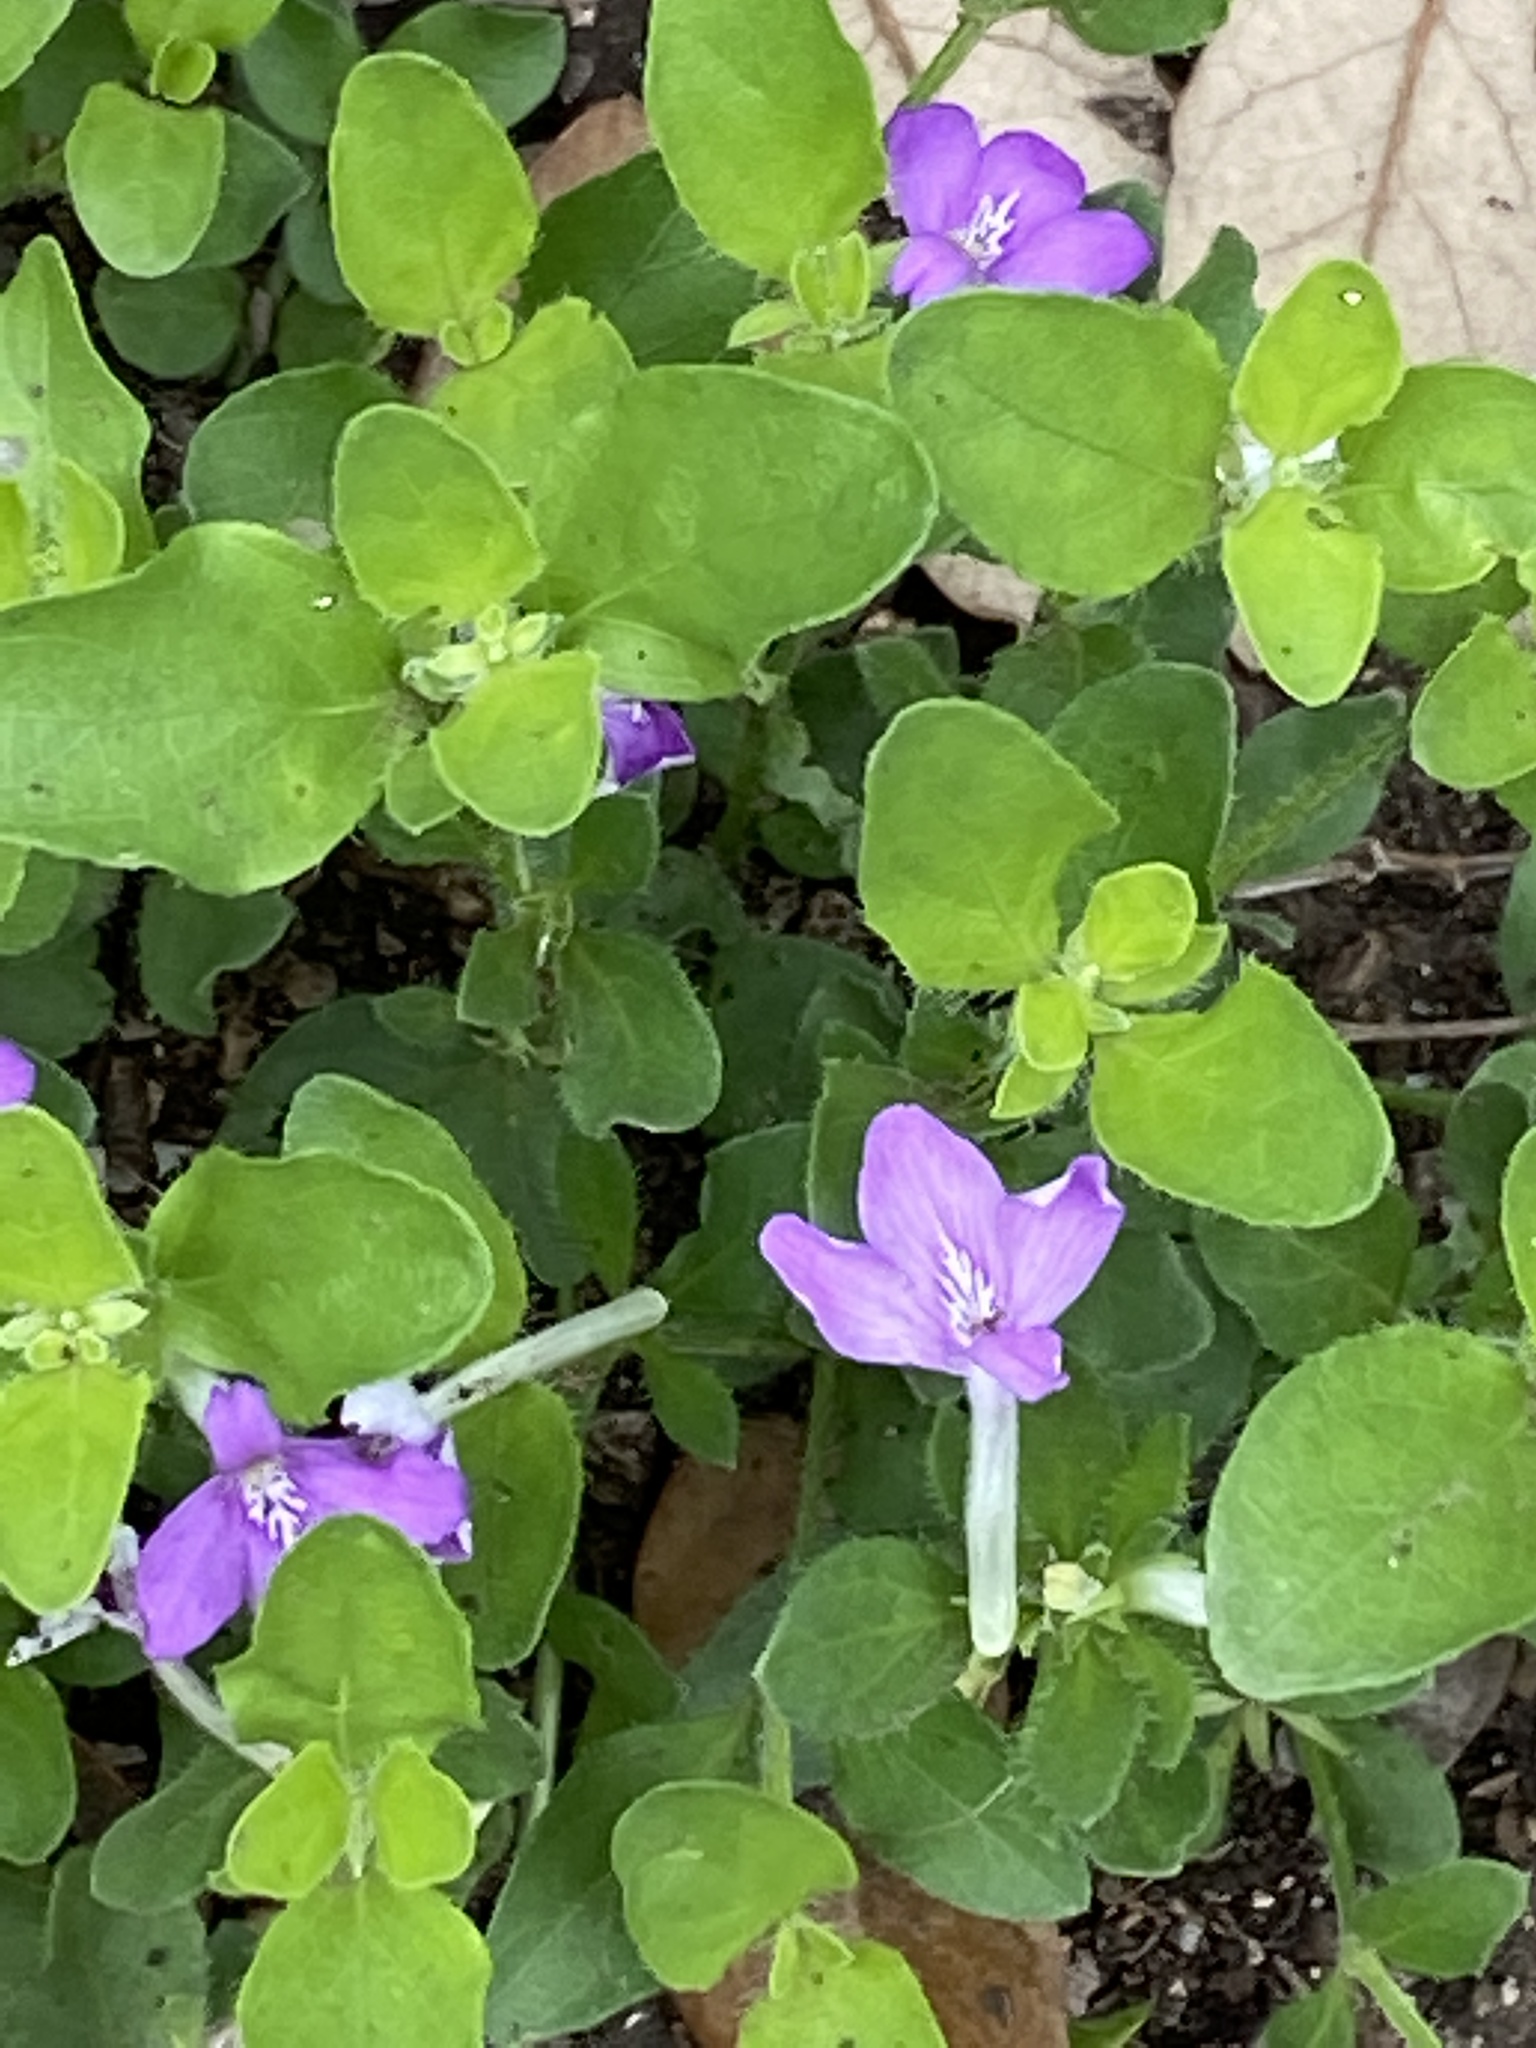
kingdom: Plantae
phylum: Tracheophyta
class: Magnoliopsida
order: Lamiales
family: Acanthaceae
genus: Justicia
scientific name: Justicia pilosella
